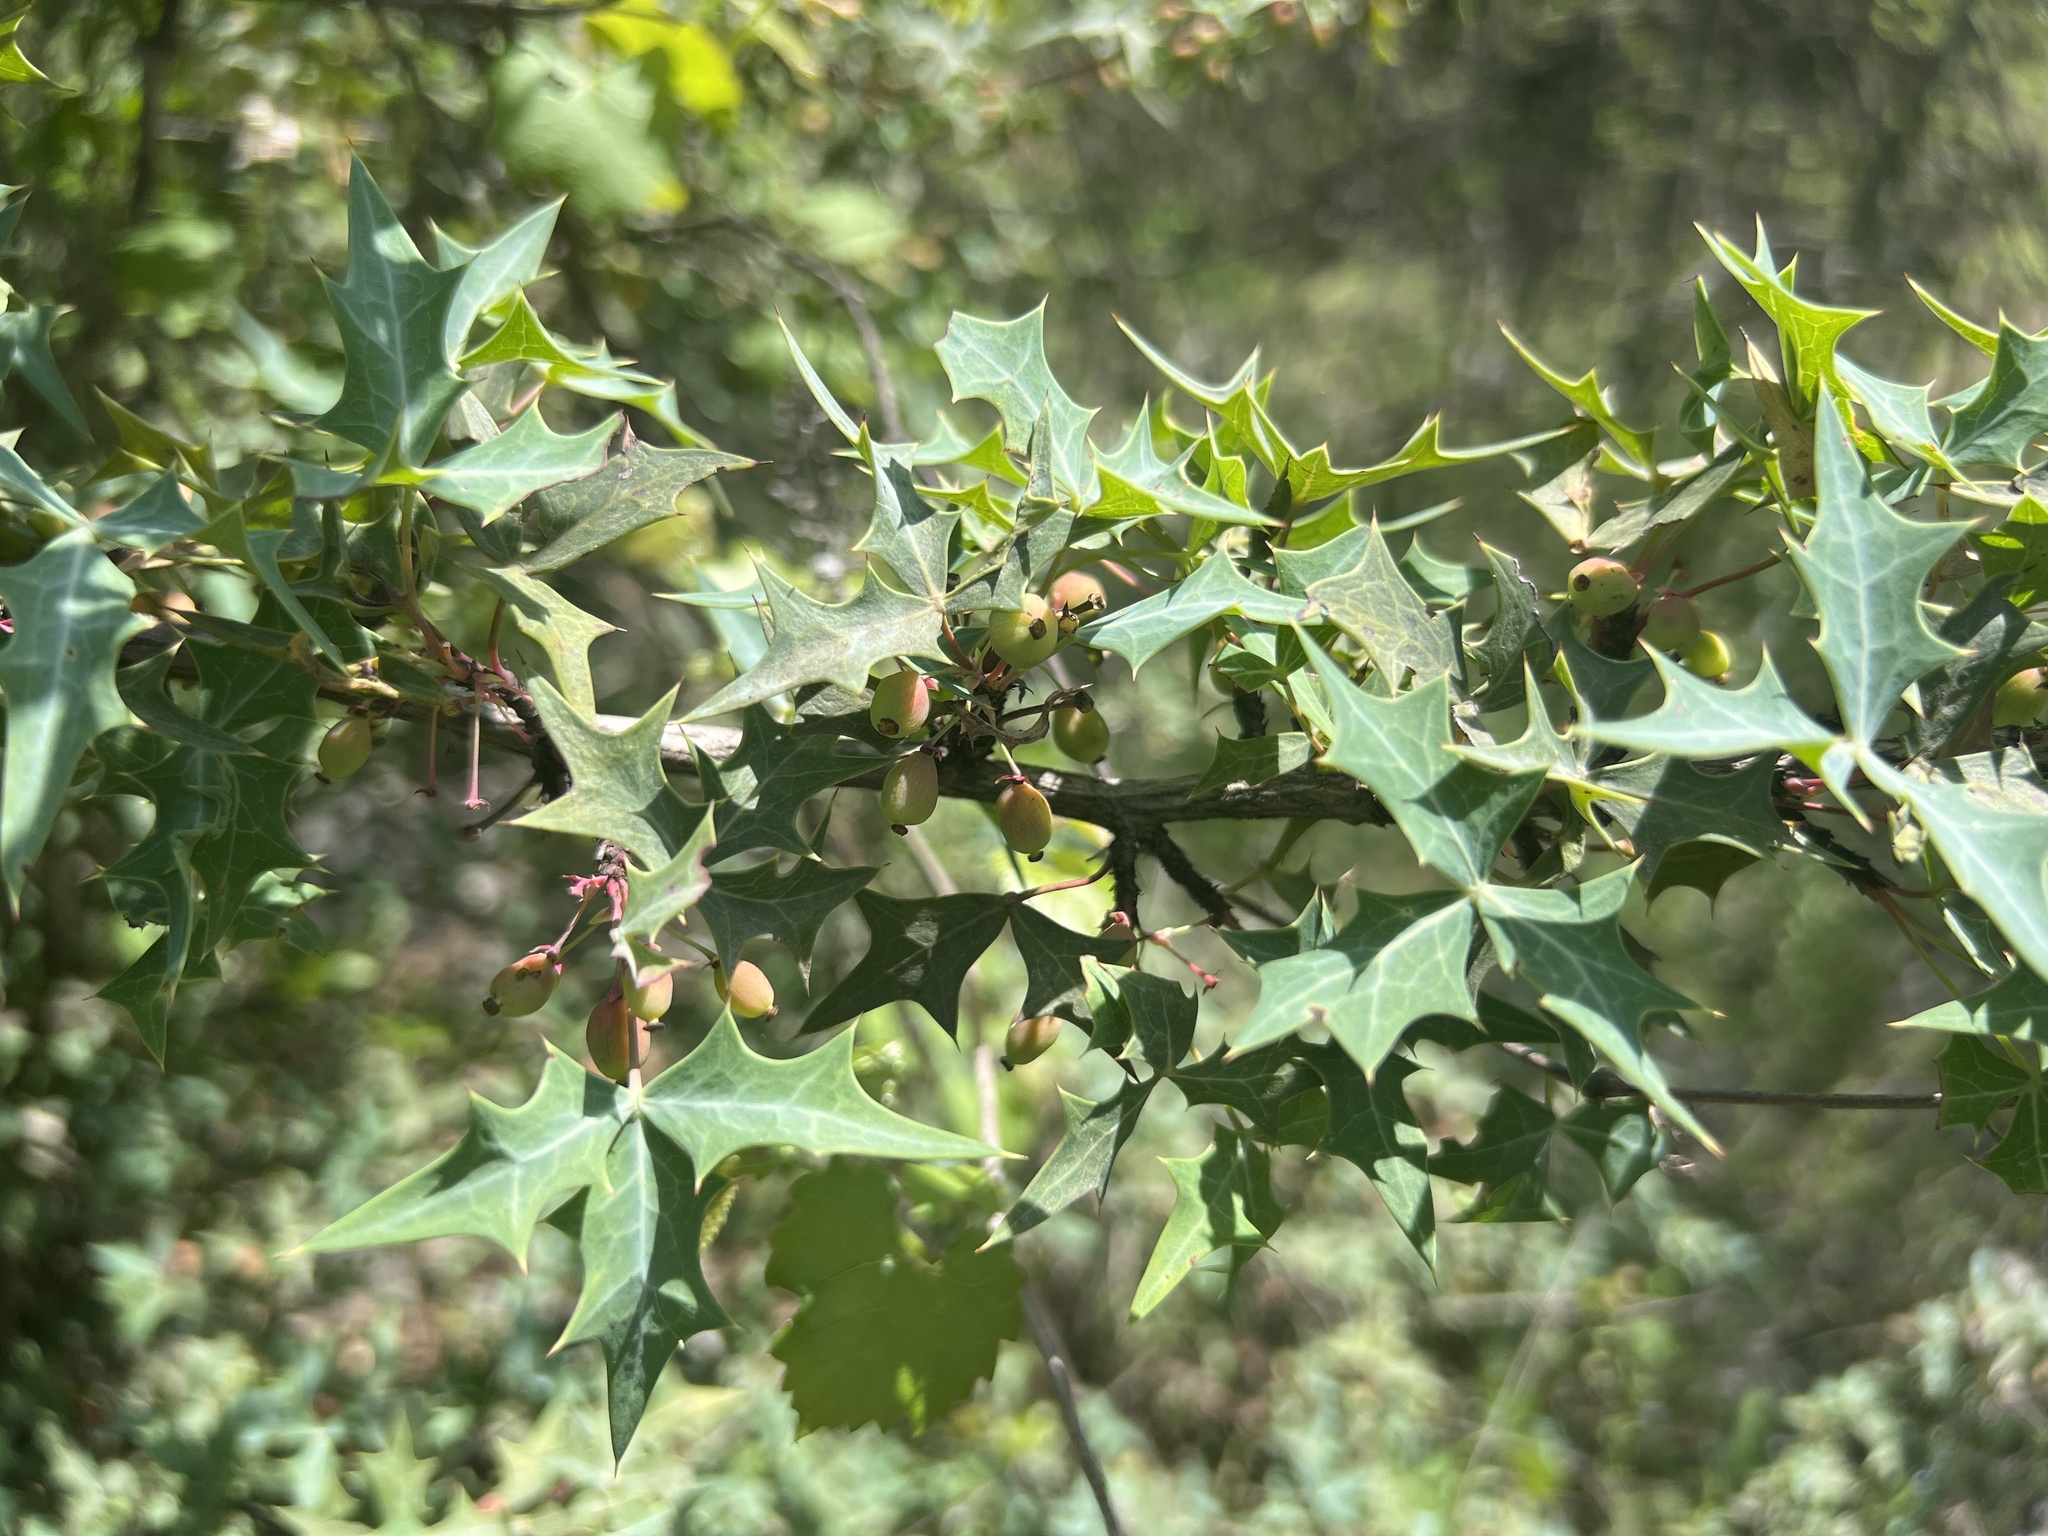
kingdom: Plantae
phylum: Tracheophyta
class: Magnoliopsida
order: Ranunculales
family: Berberidaceae
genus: Alloberberis
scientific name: Alloberberis trifoliolata
